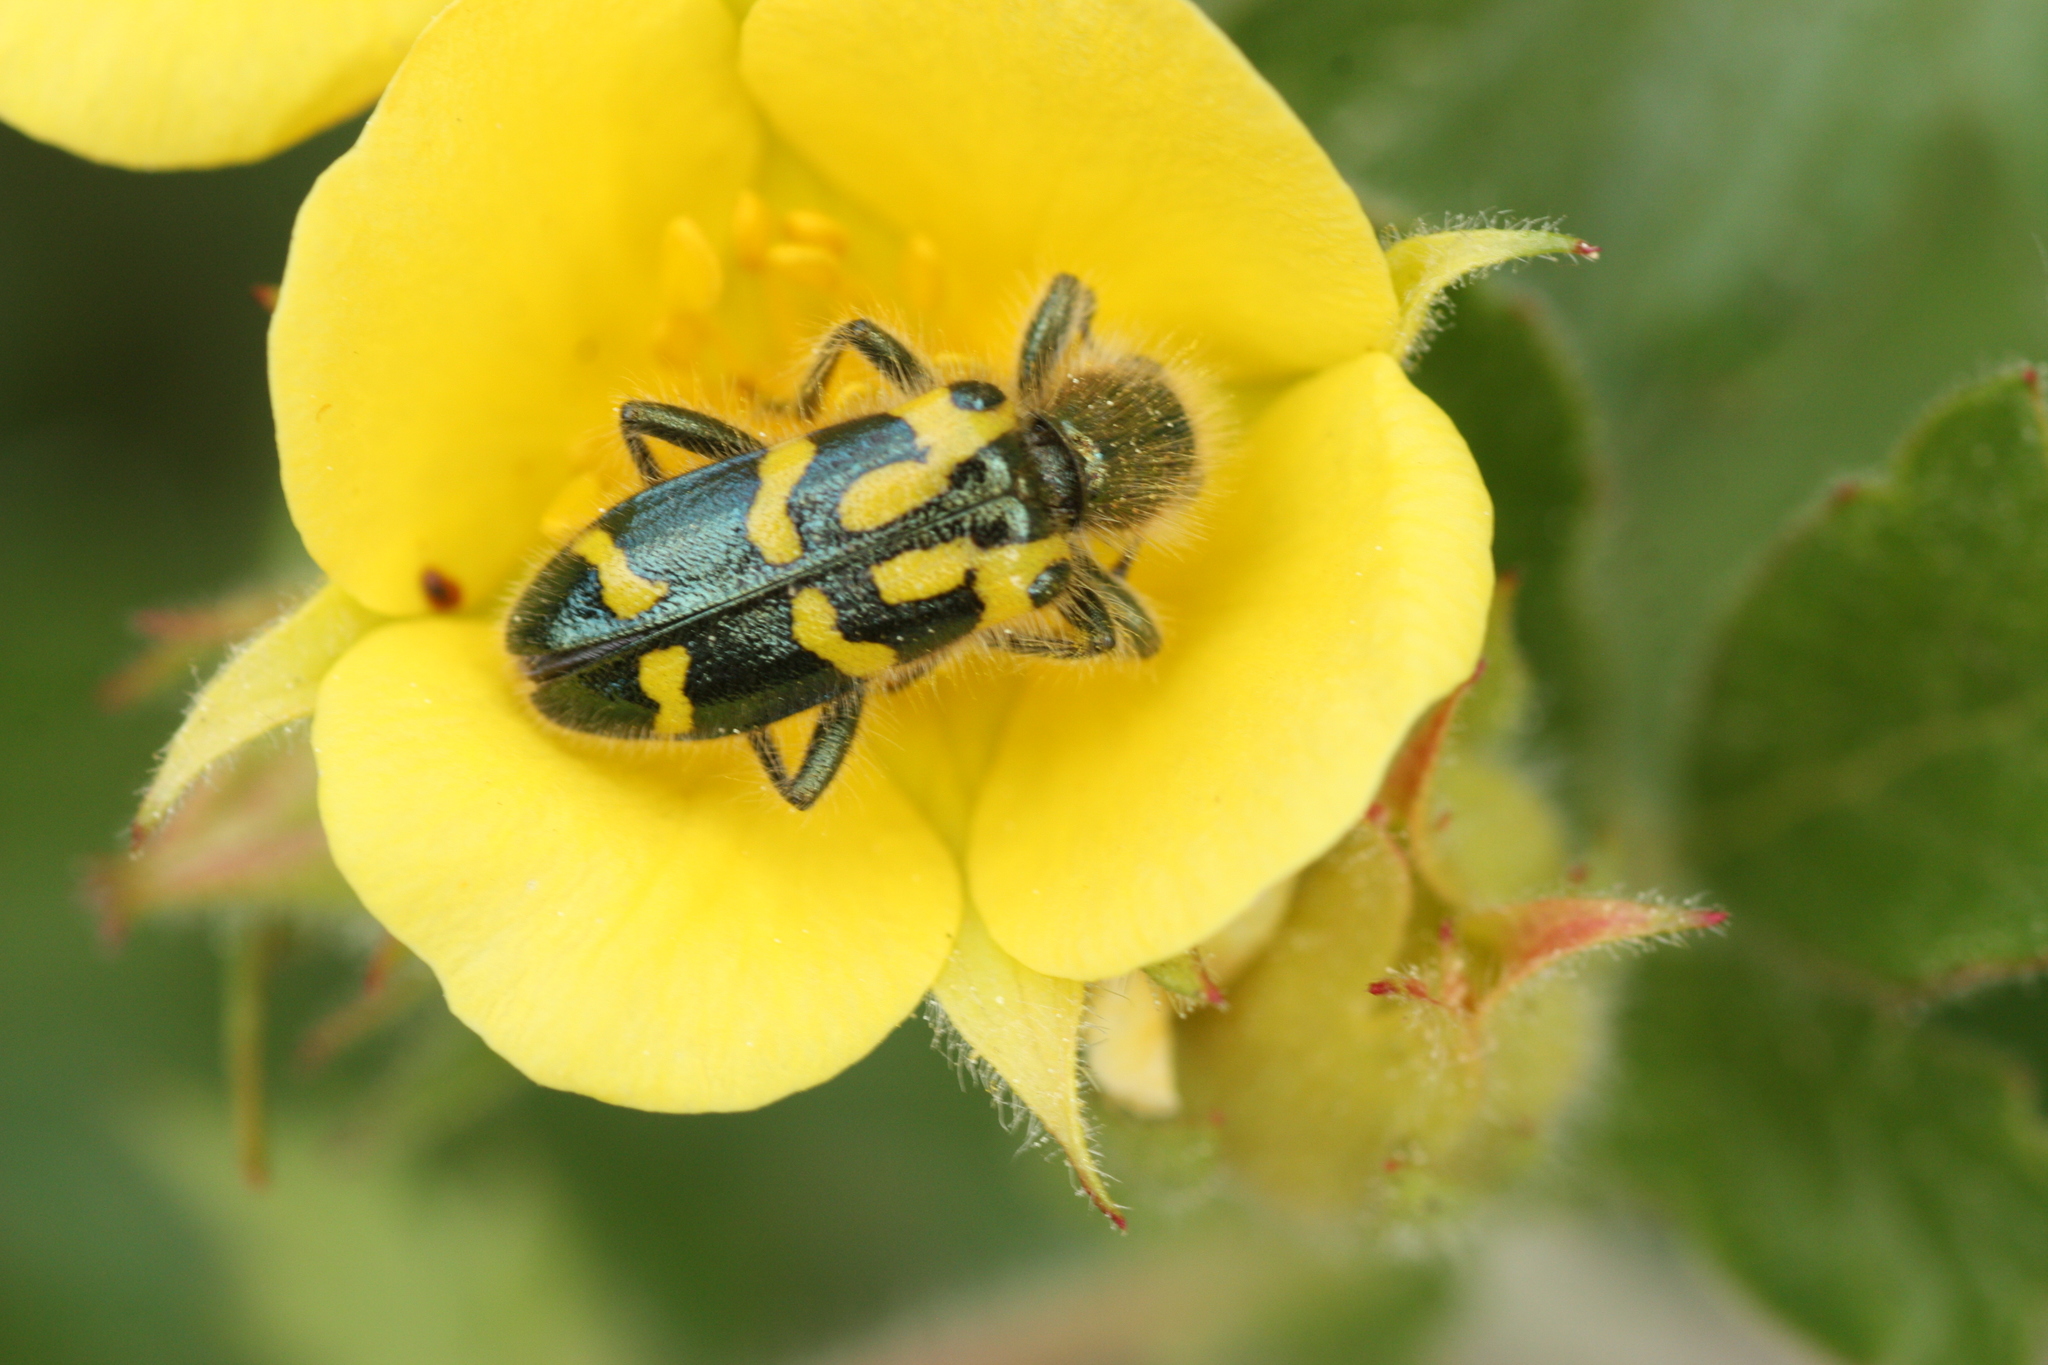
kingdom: Animalia
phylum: Arthropoda
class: Insecta
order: Coleoptera
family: Cleridae
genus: Trichodes
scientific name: Trichodes ornatus
